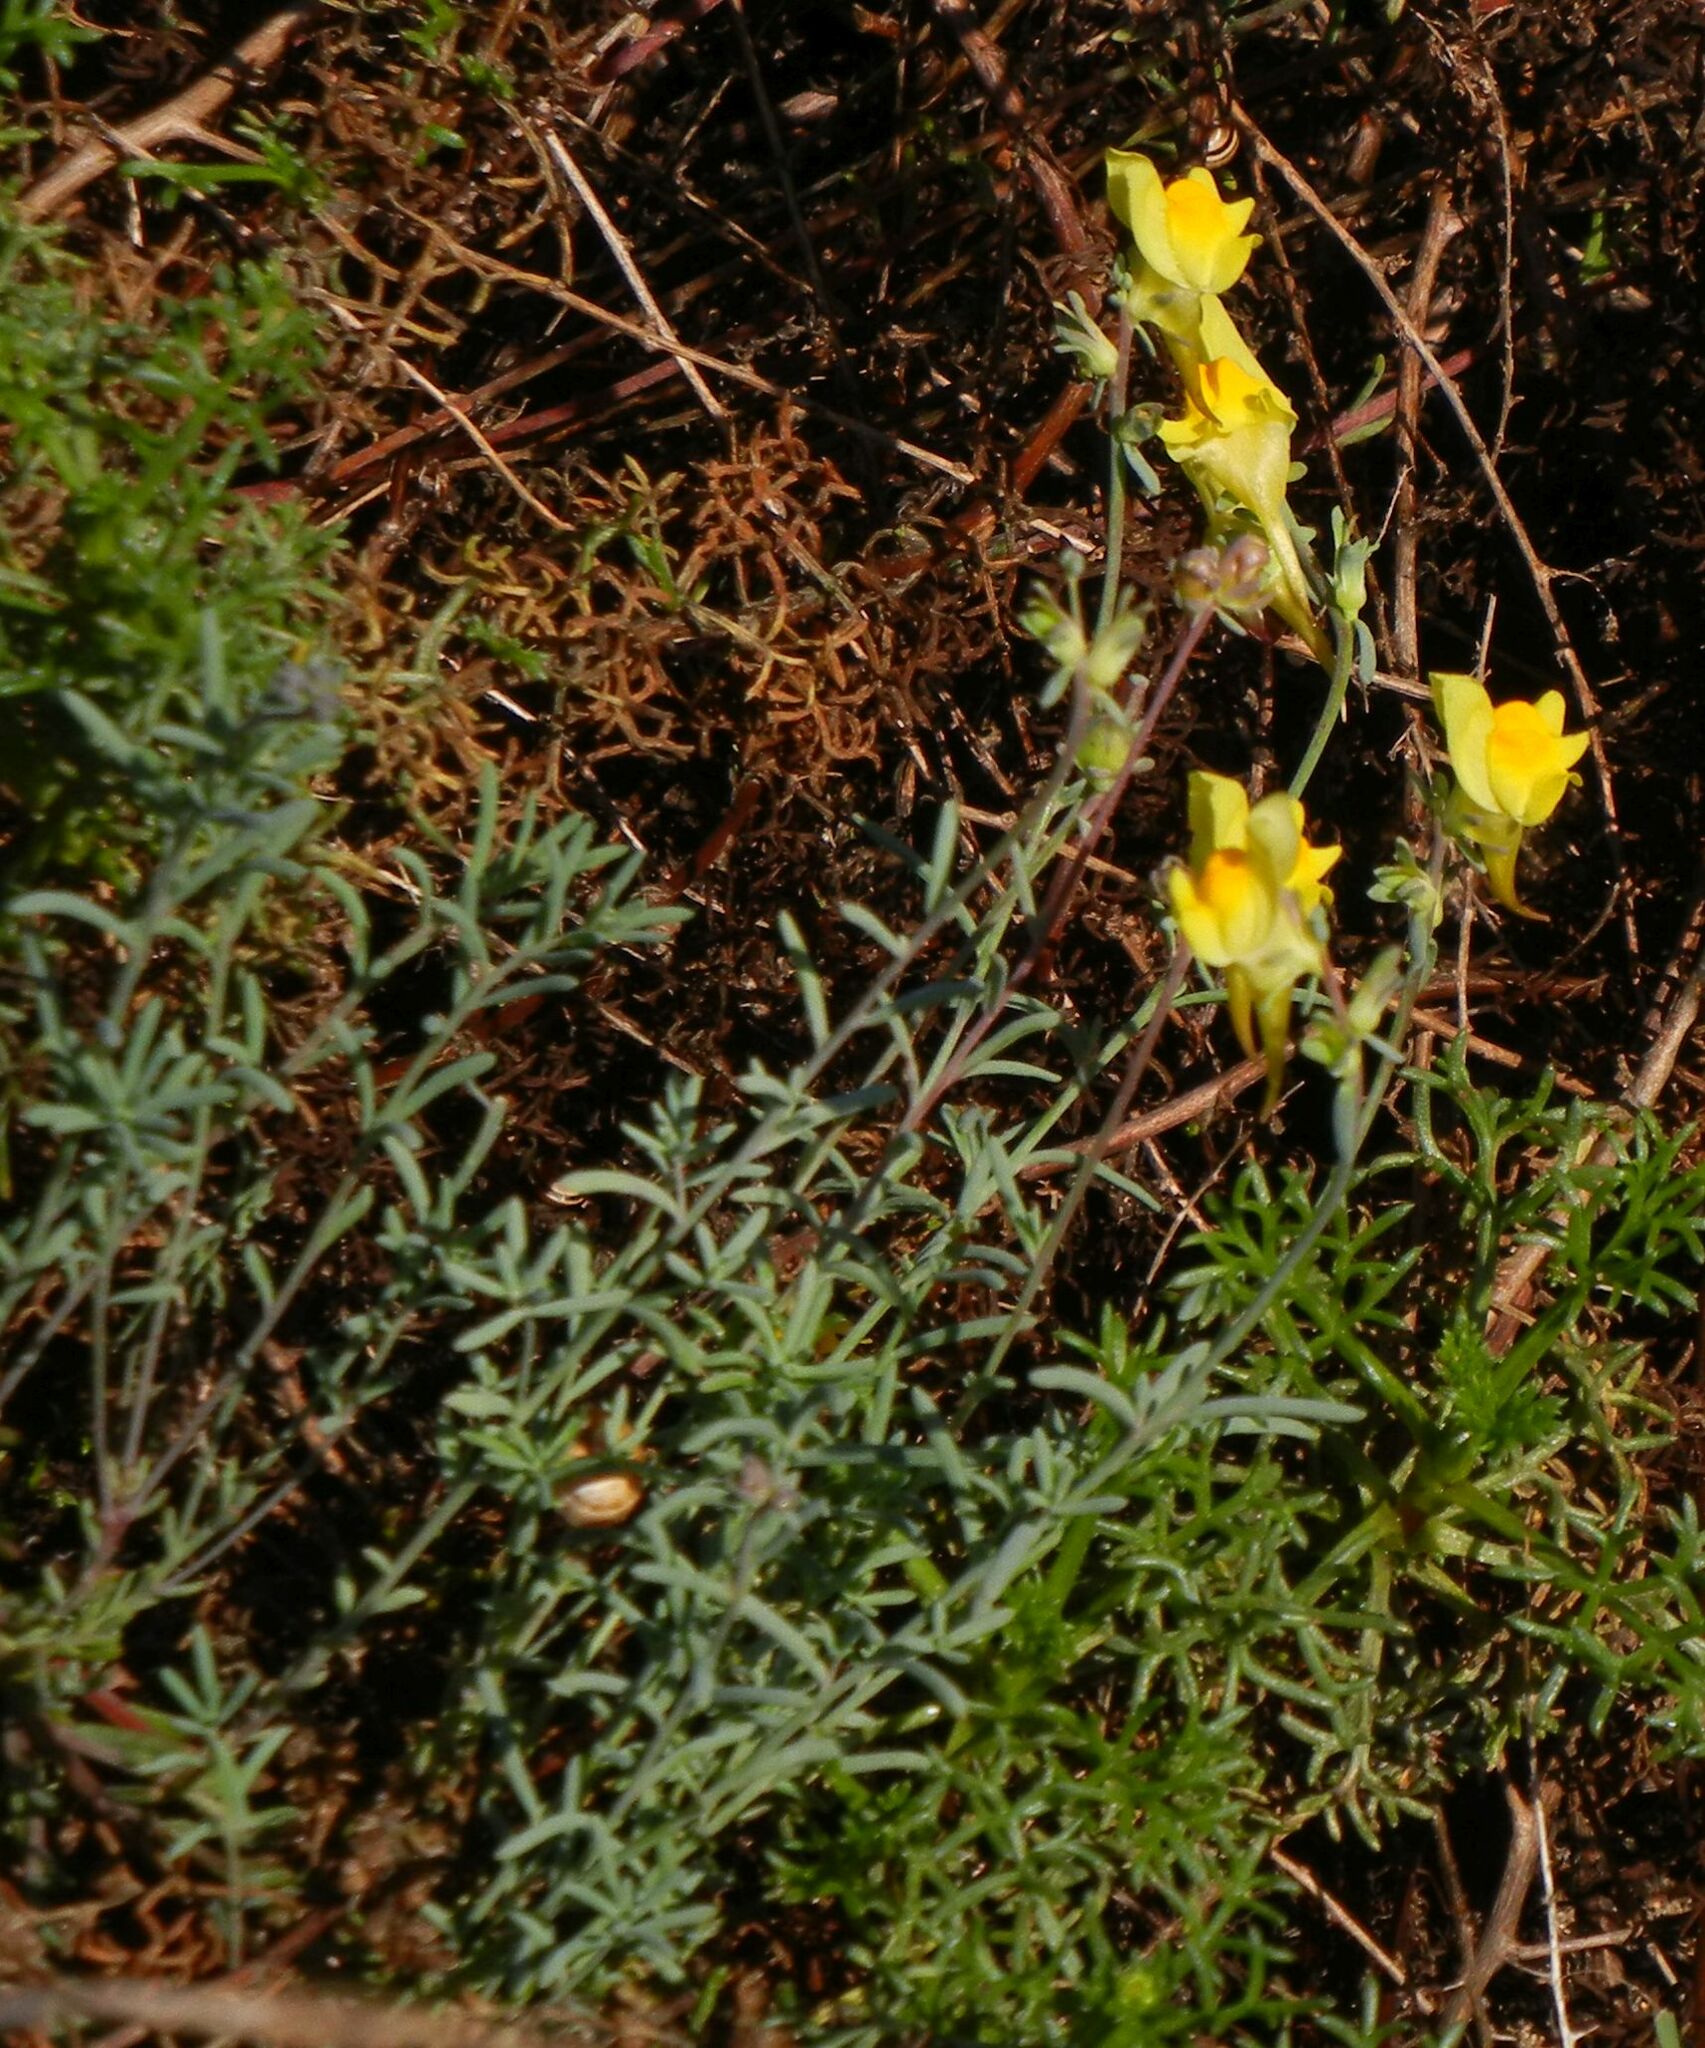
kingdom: Plantae
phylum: Tracheophyta
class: Magnoliopsida
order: Lamiales
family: Plantaginaceae
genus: Linaria
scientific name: Linaria polygalifolia
